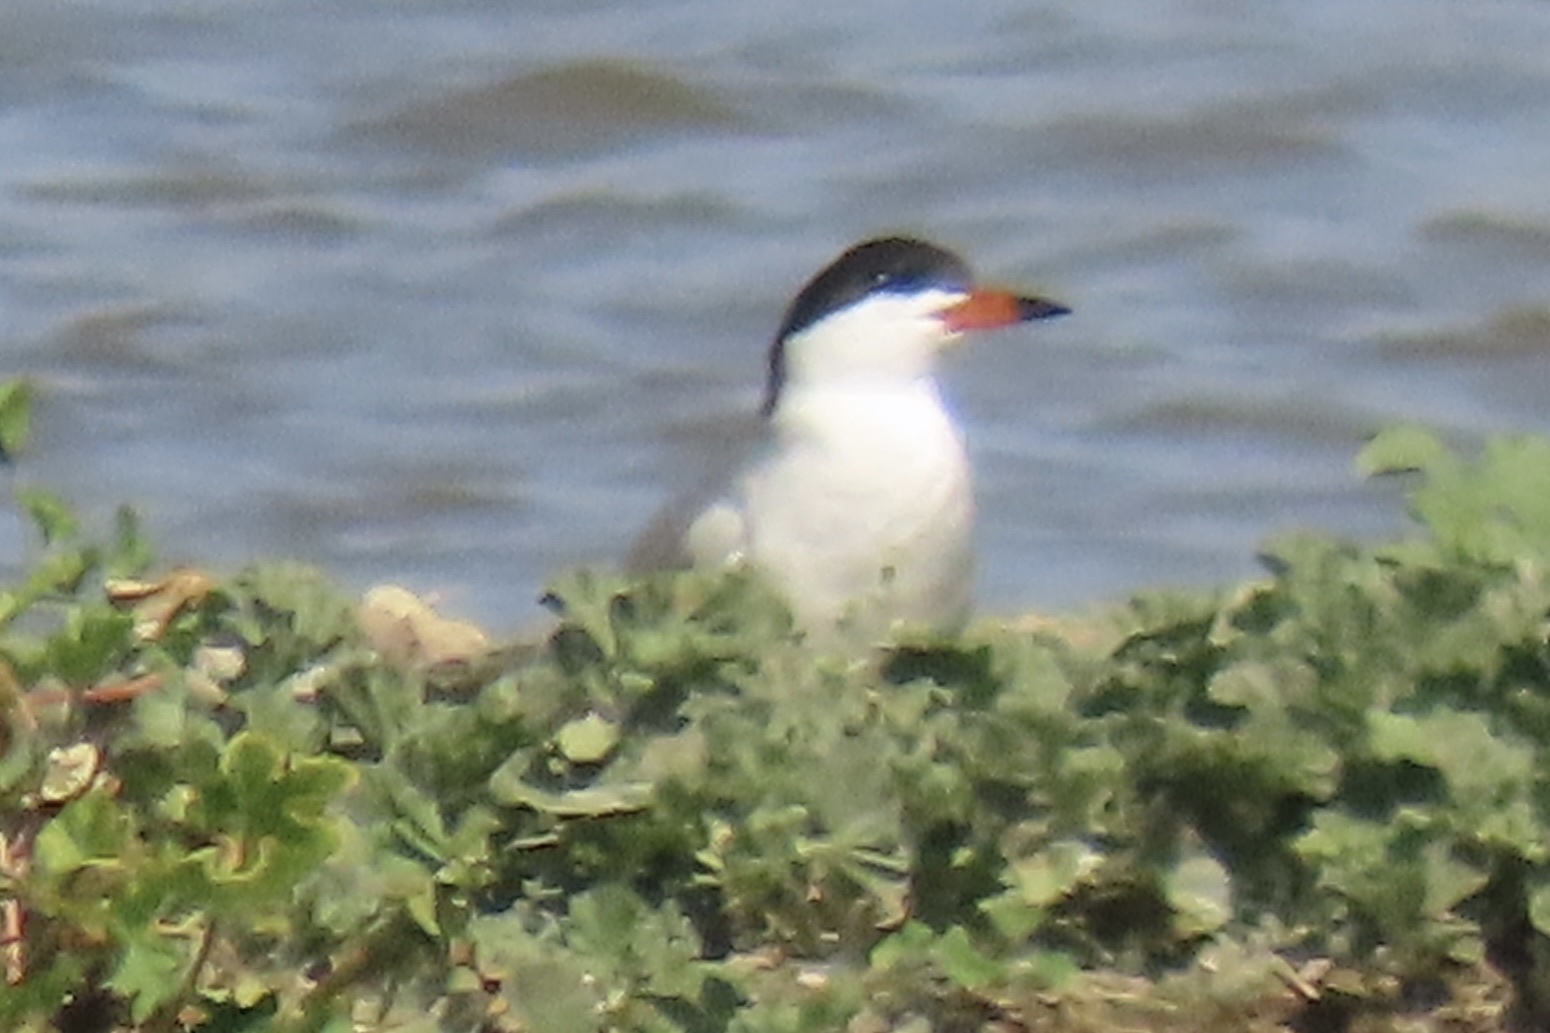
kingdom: Animalia
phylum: Chordata
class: Aves
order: Charadriiformes
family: Laridae
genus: Sterna
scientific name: Sterna forsteri
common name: Forster's tern
